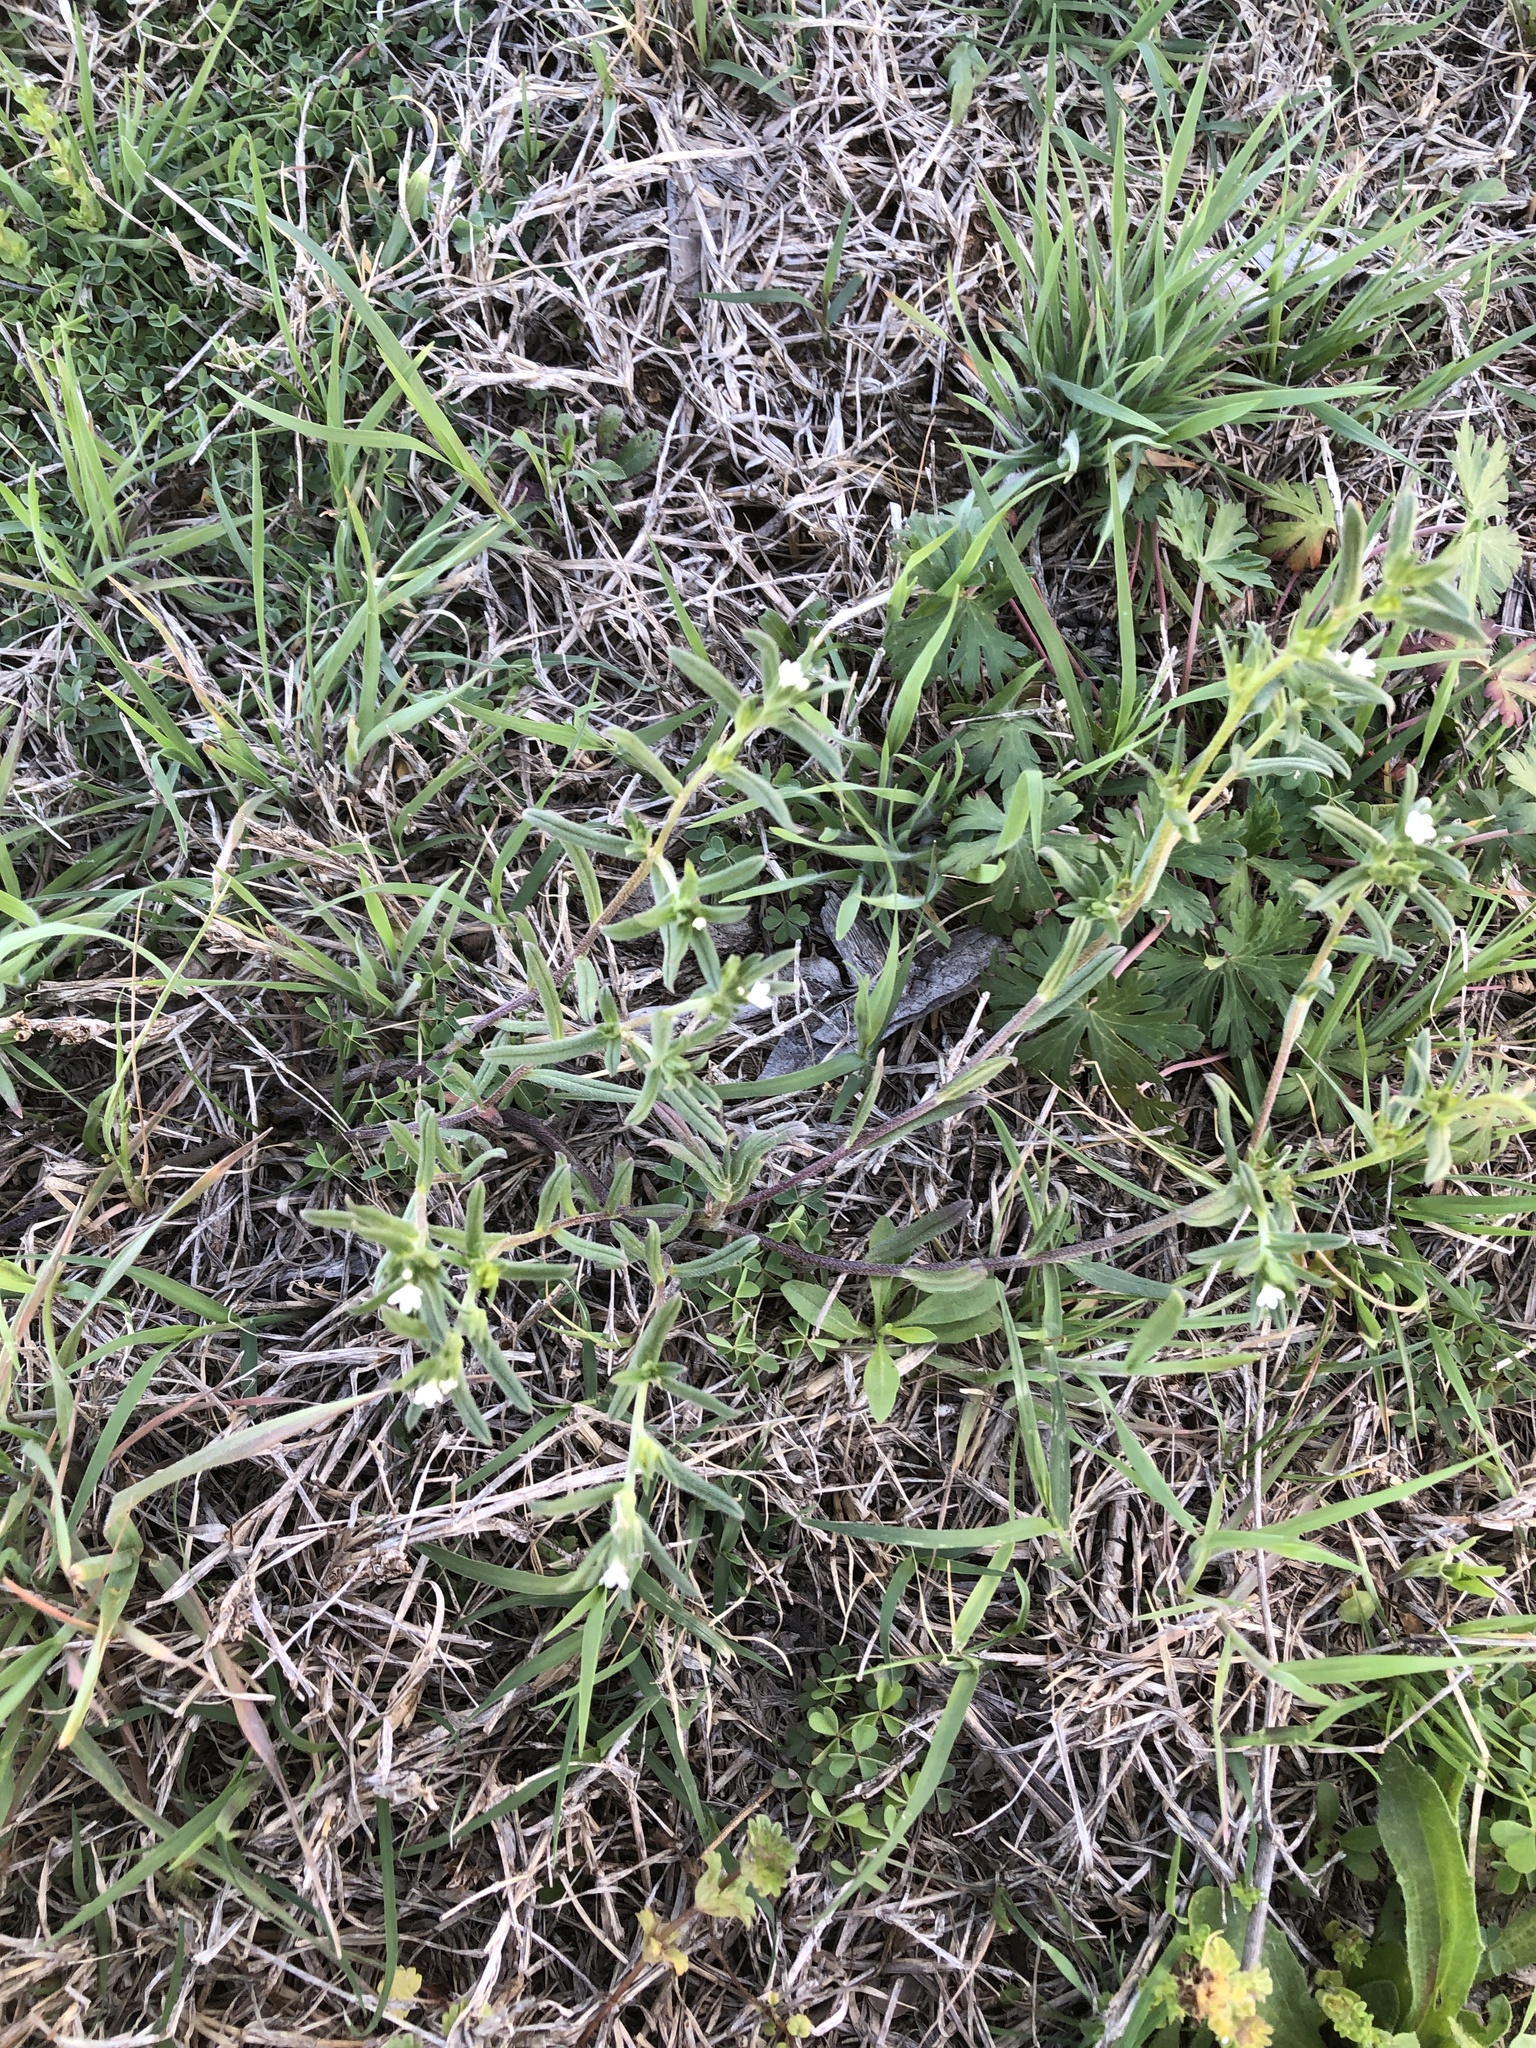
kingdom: Plantae
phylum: Tracheophyta
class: Magnoliopsida
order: Boraginales
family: Boraginaceae
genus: Buglossoides
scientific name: Buglossoides arvensis
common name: Corn gromwell
